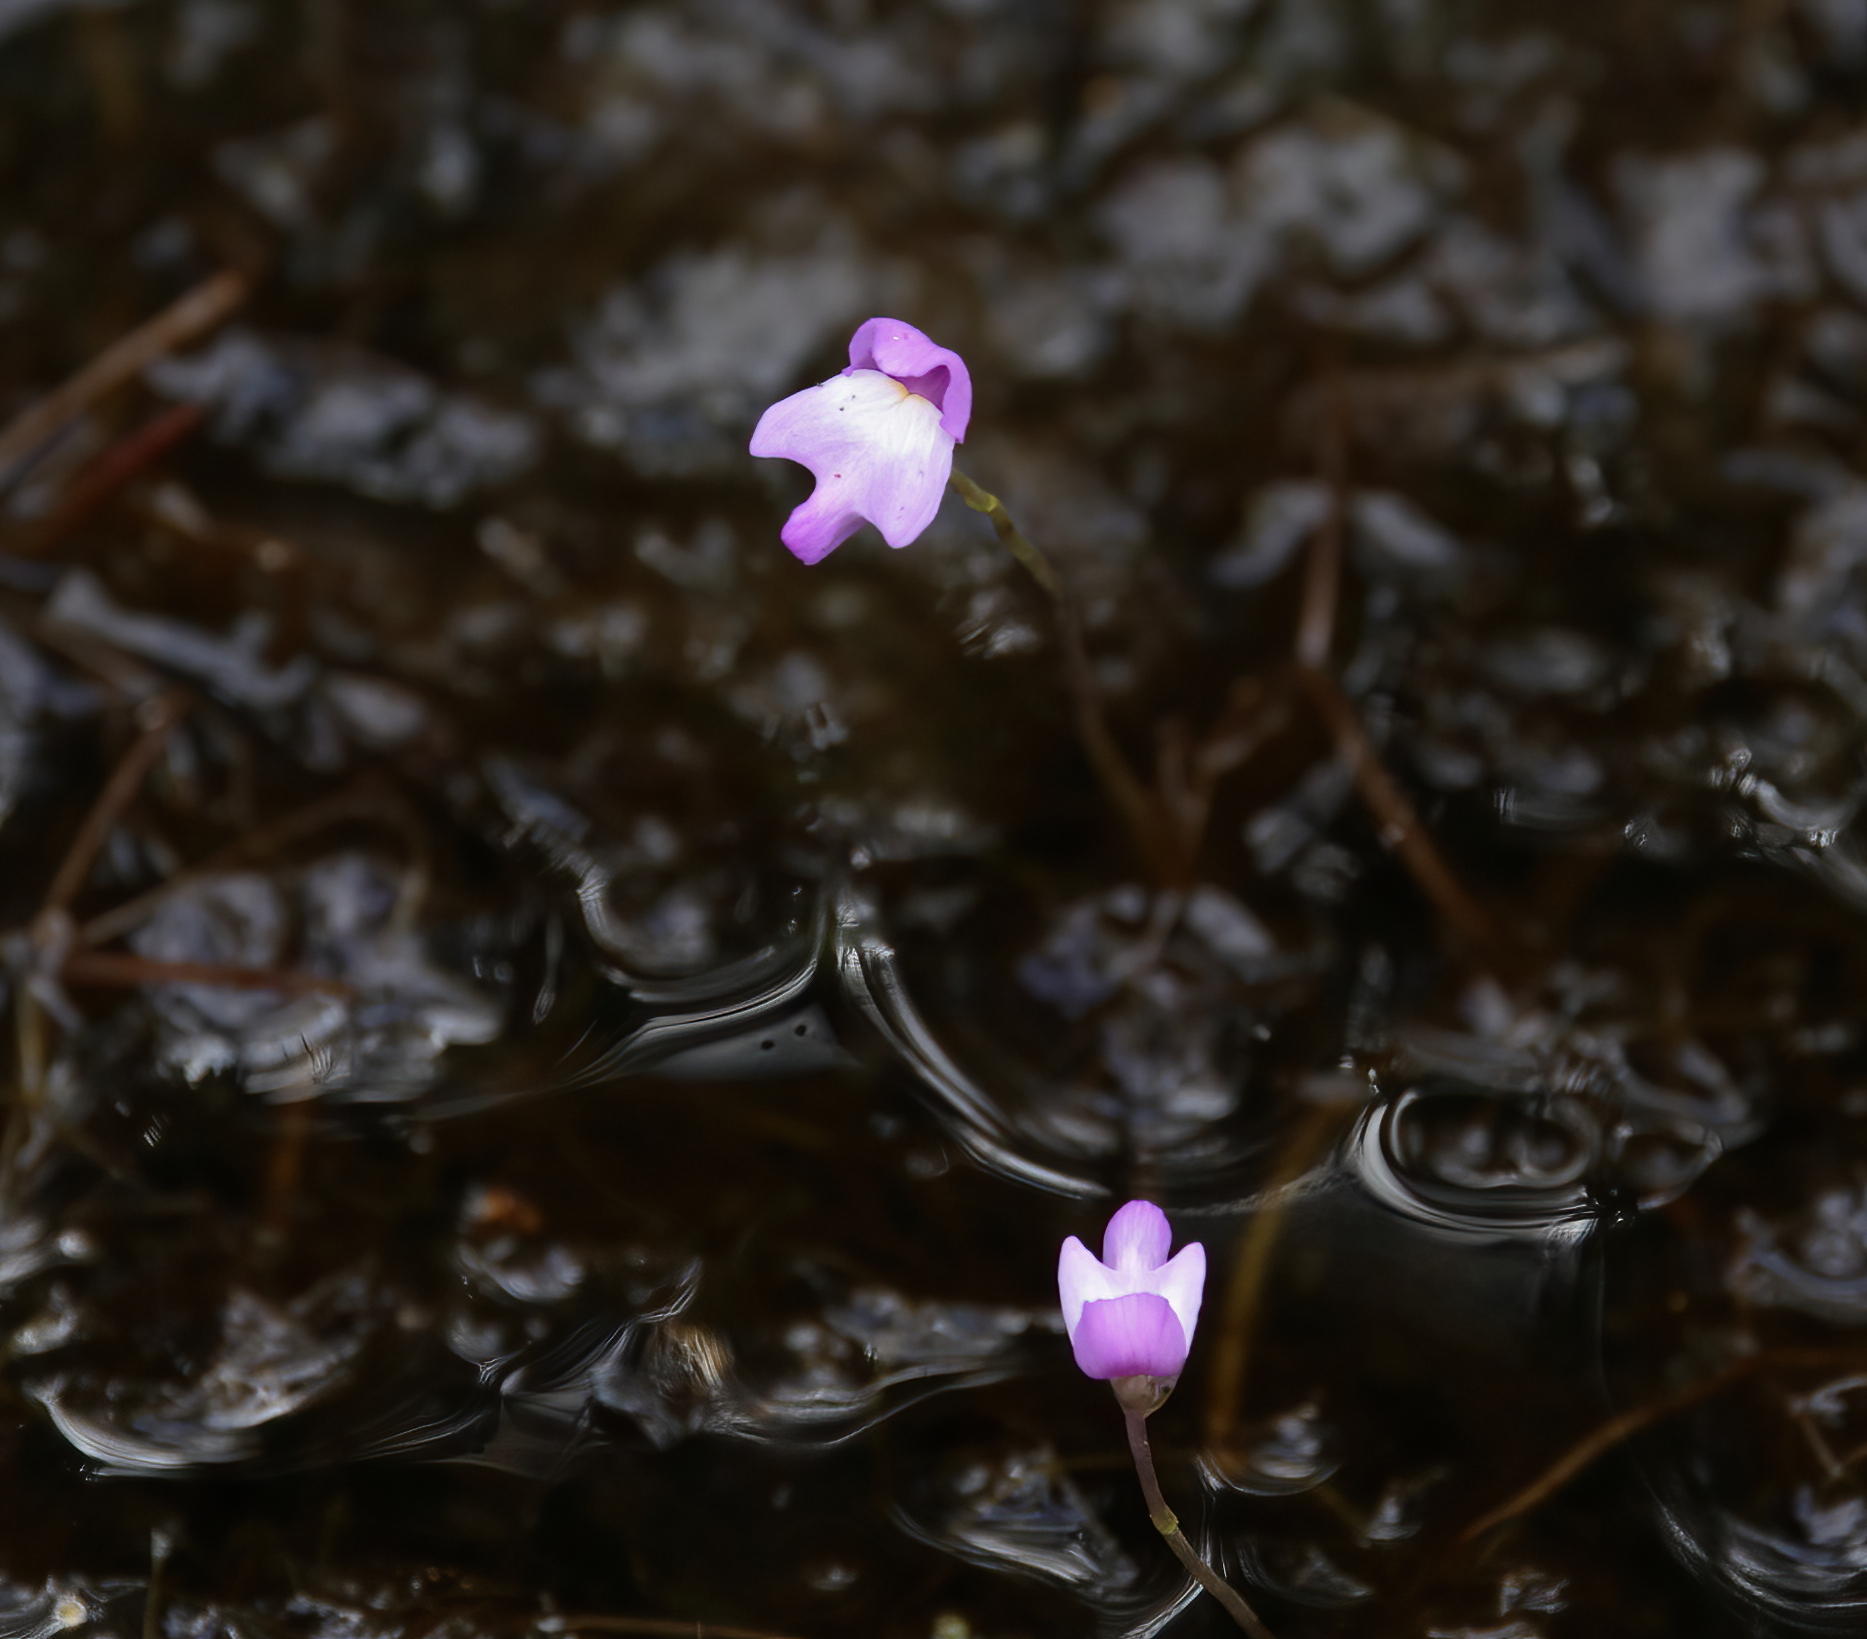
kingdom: Plantae
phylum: Tracheophyta
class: Magnoliopsida
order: Lamiales
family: Lentibulariaceae
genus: Utricularia
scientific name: Utricularia purpurea
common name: Eastern purple bladderwort
